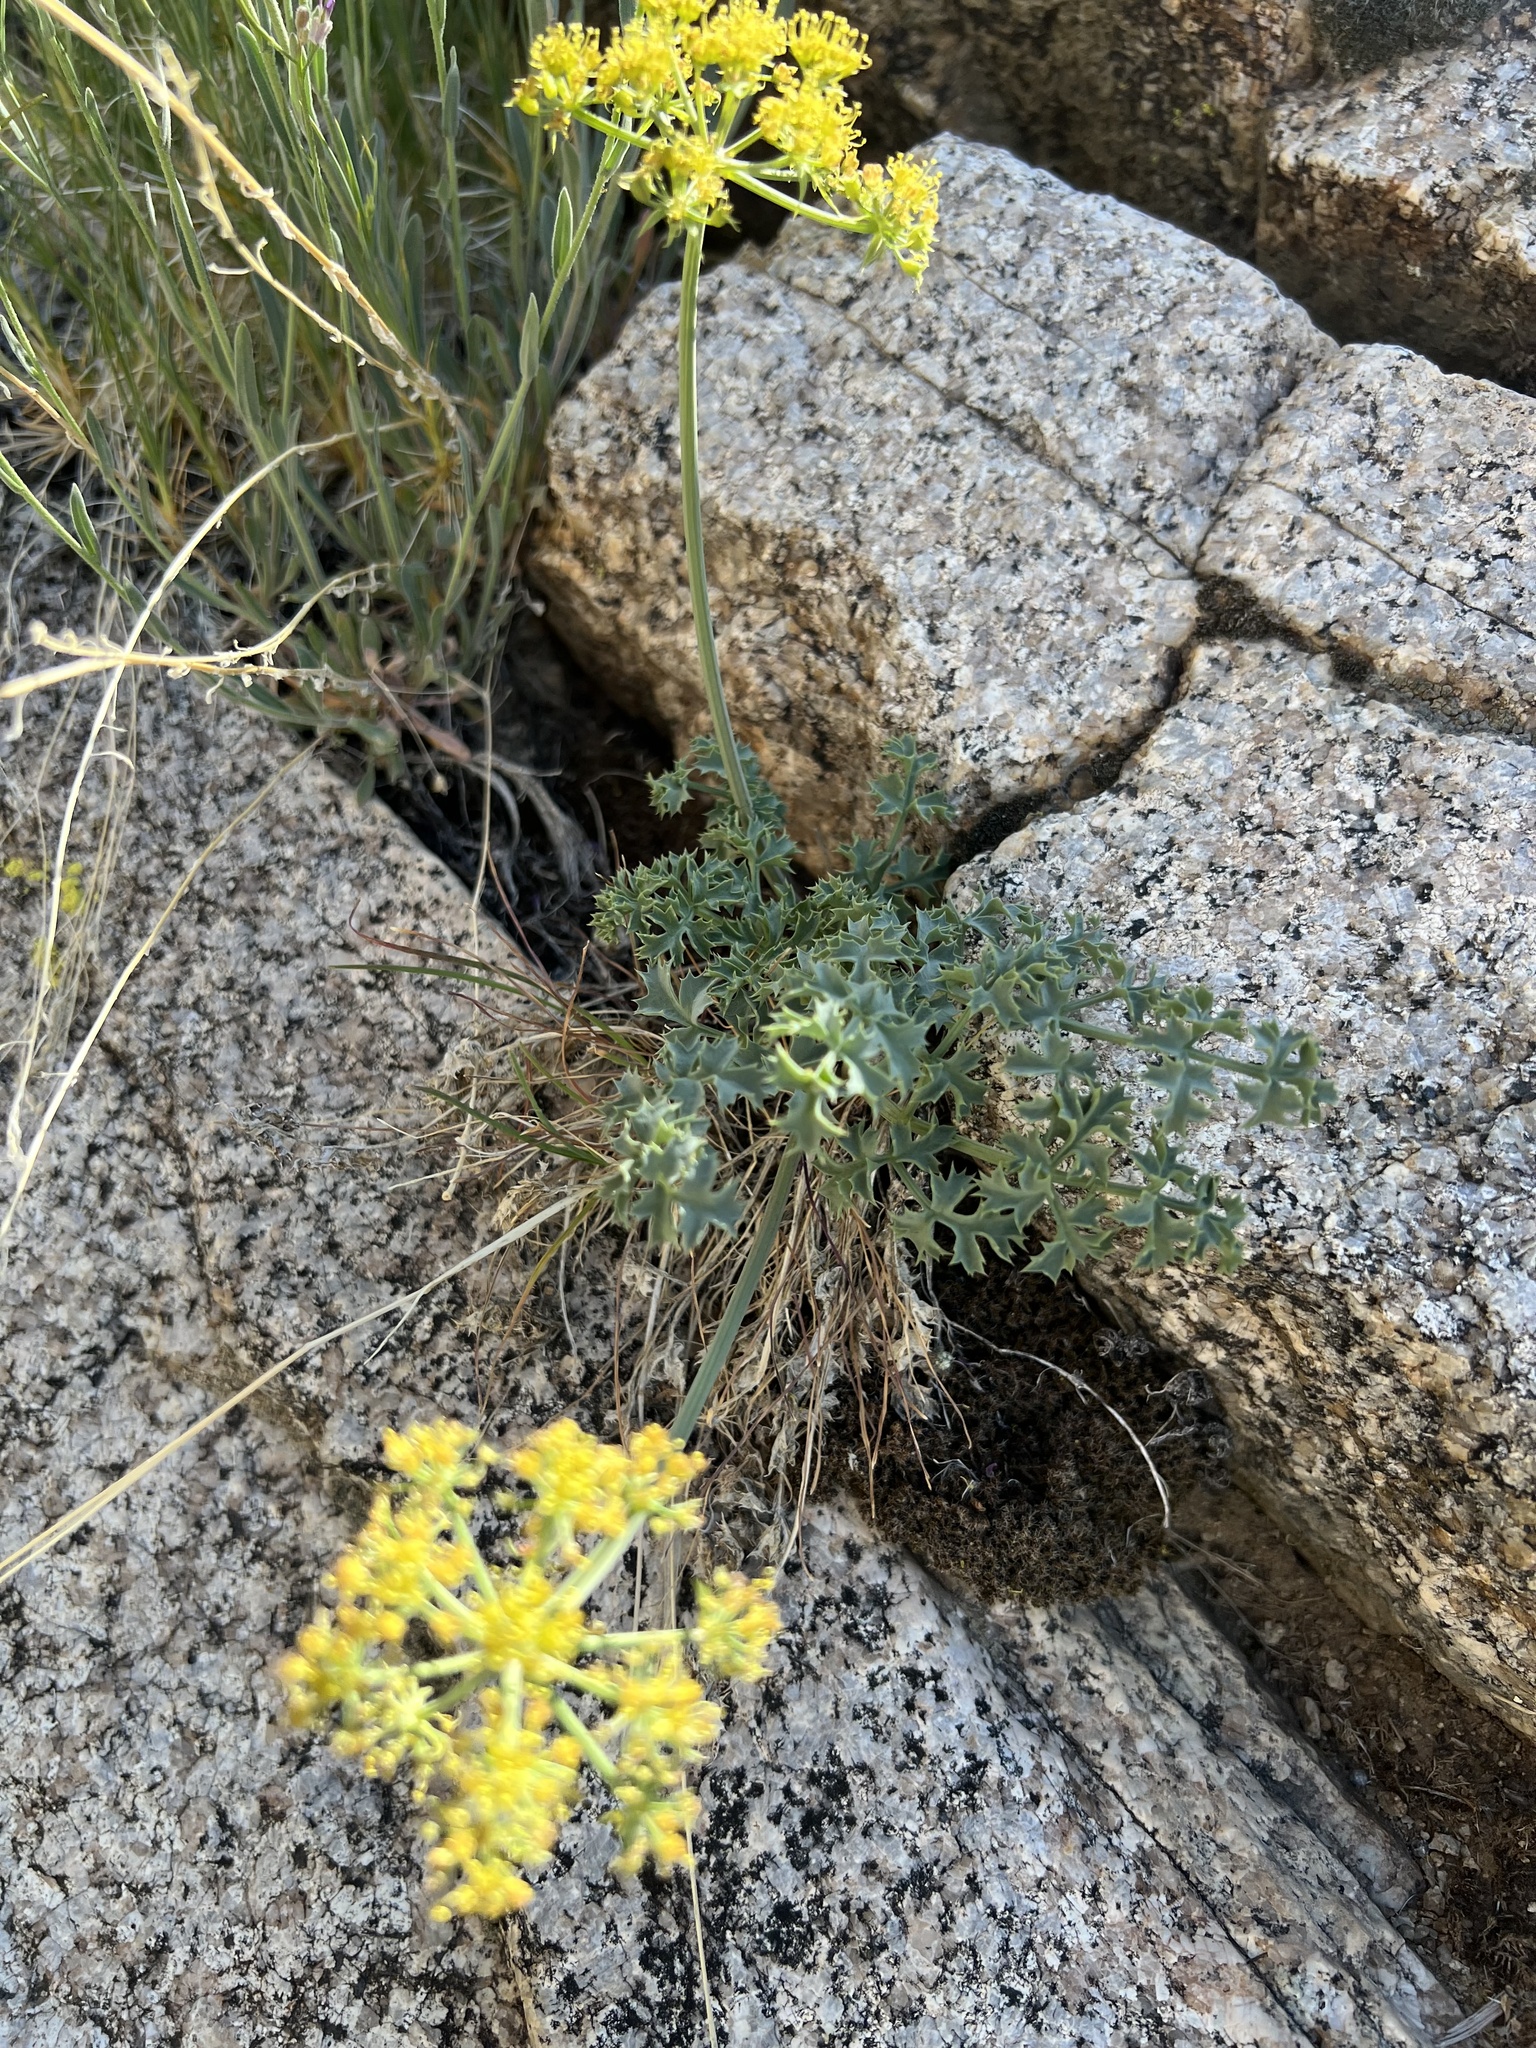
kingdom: Plantae
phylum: Tracheophyta
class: Magnoliopsida
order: Apiales
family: Apiaceae
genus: Lomatium
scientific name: Lomatium rigidum
